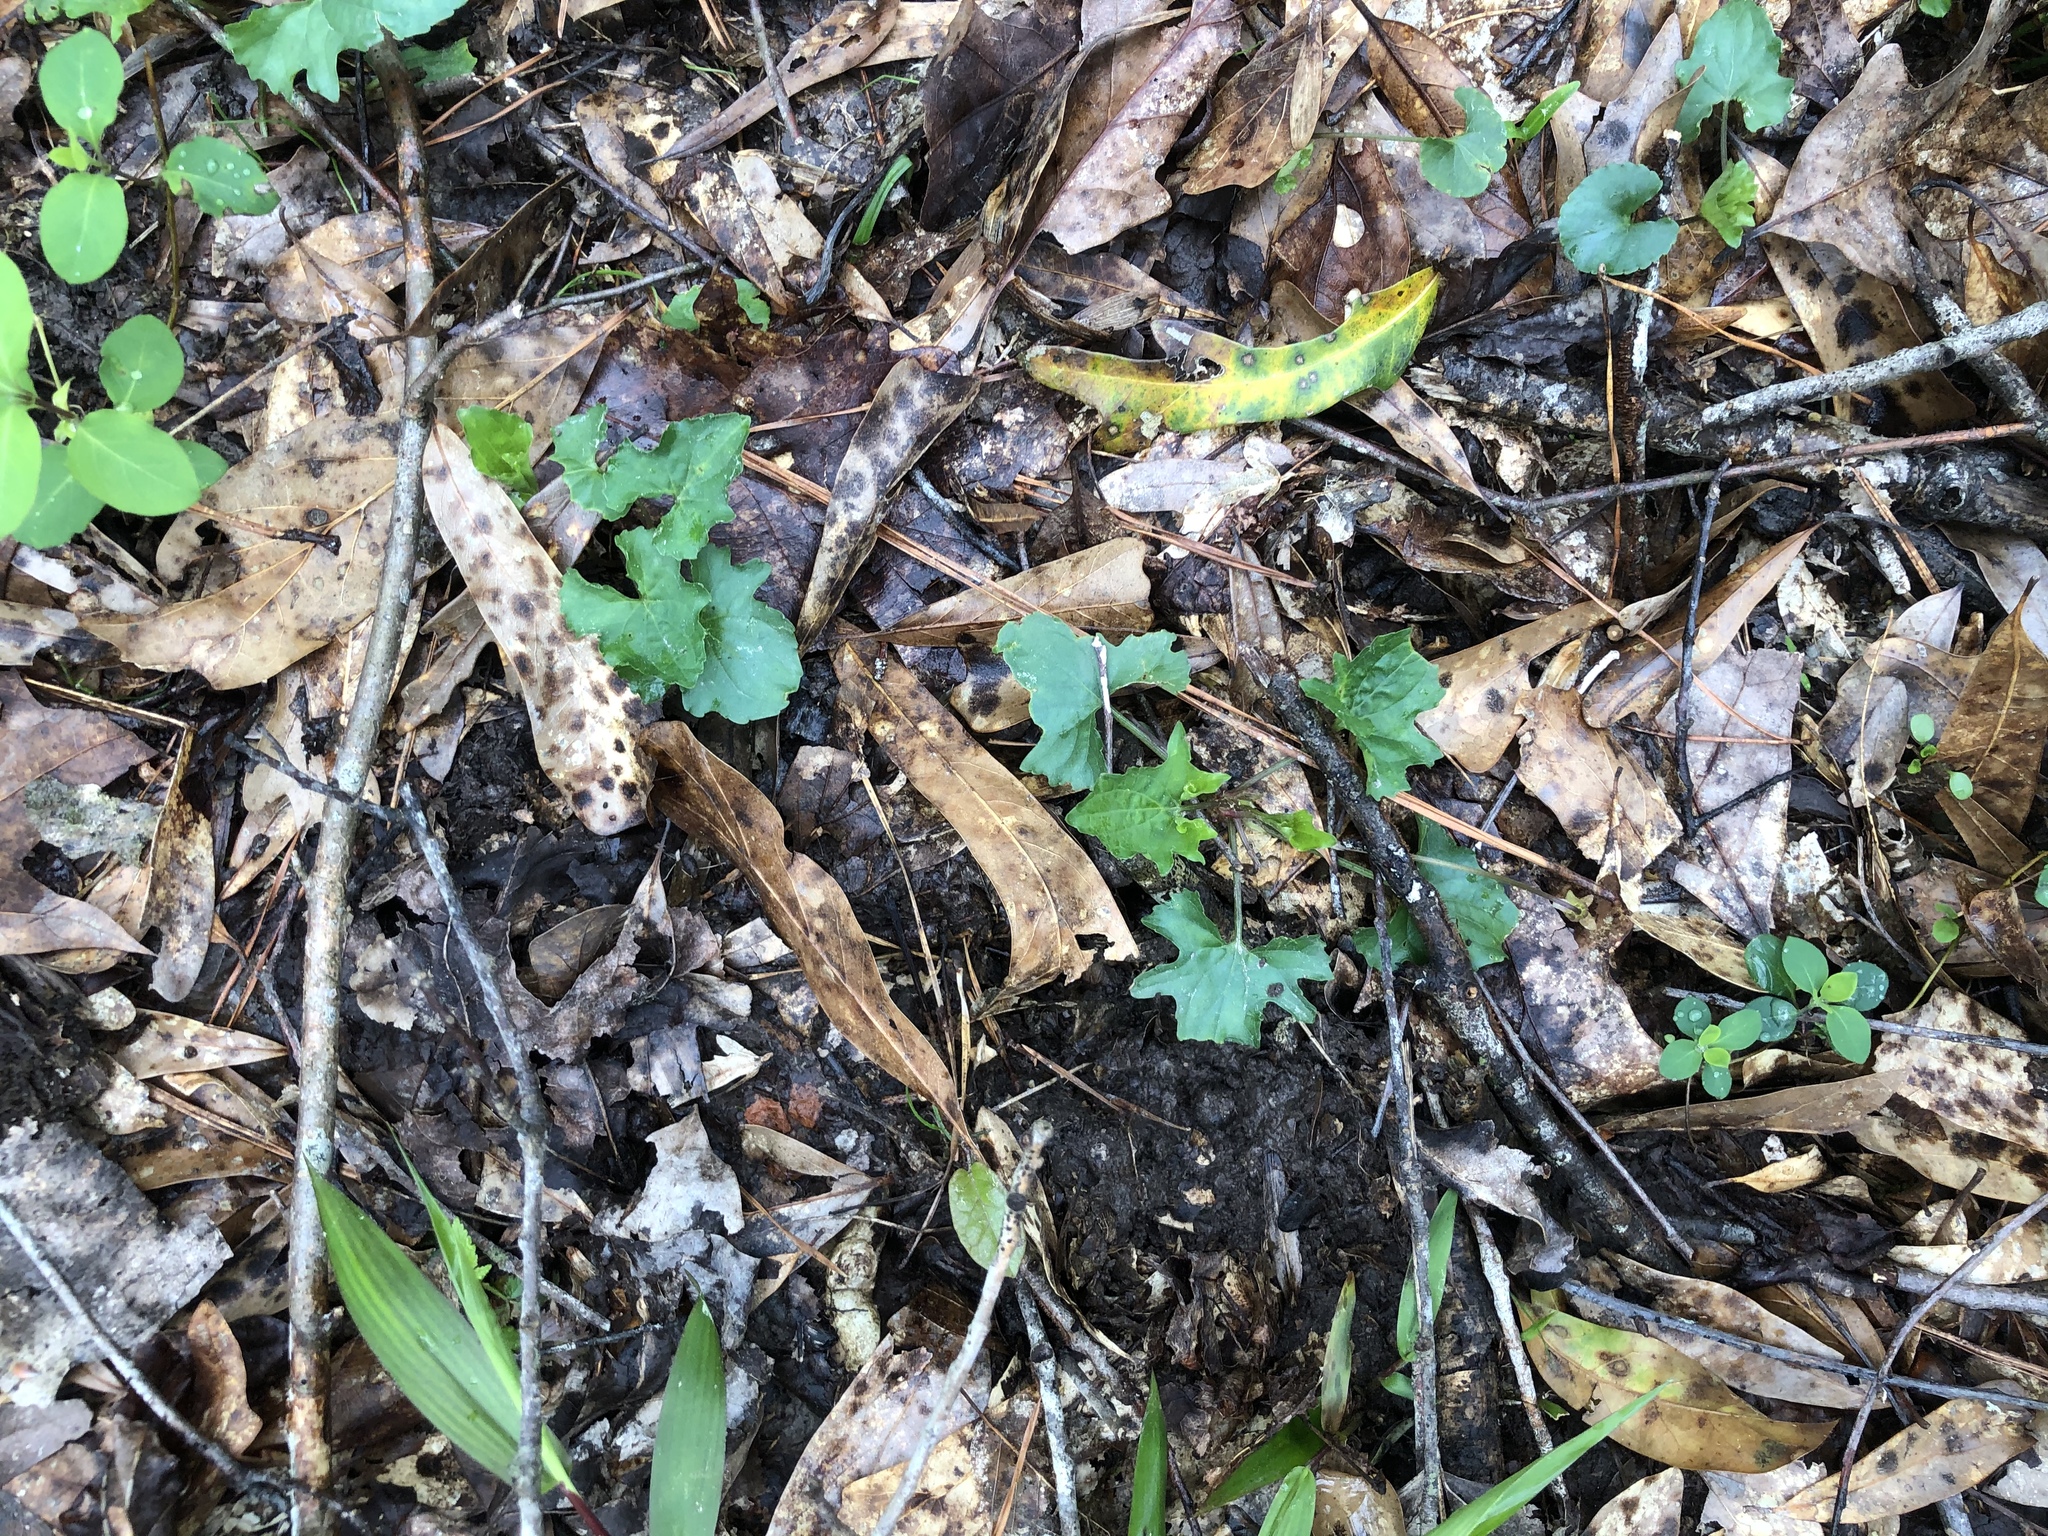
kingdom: Plantae
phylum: Tracheophyta
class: Magnoliopsida
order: Malpighiales
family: Violaceae
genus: Viola
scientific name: Viola edulis
